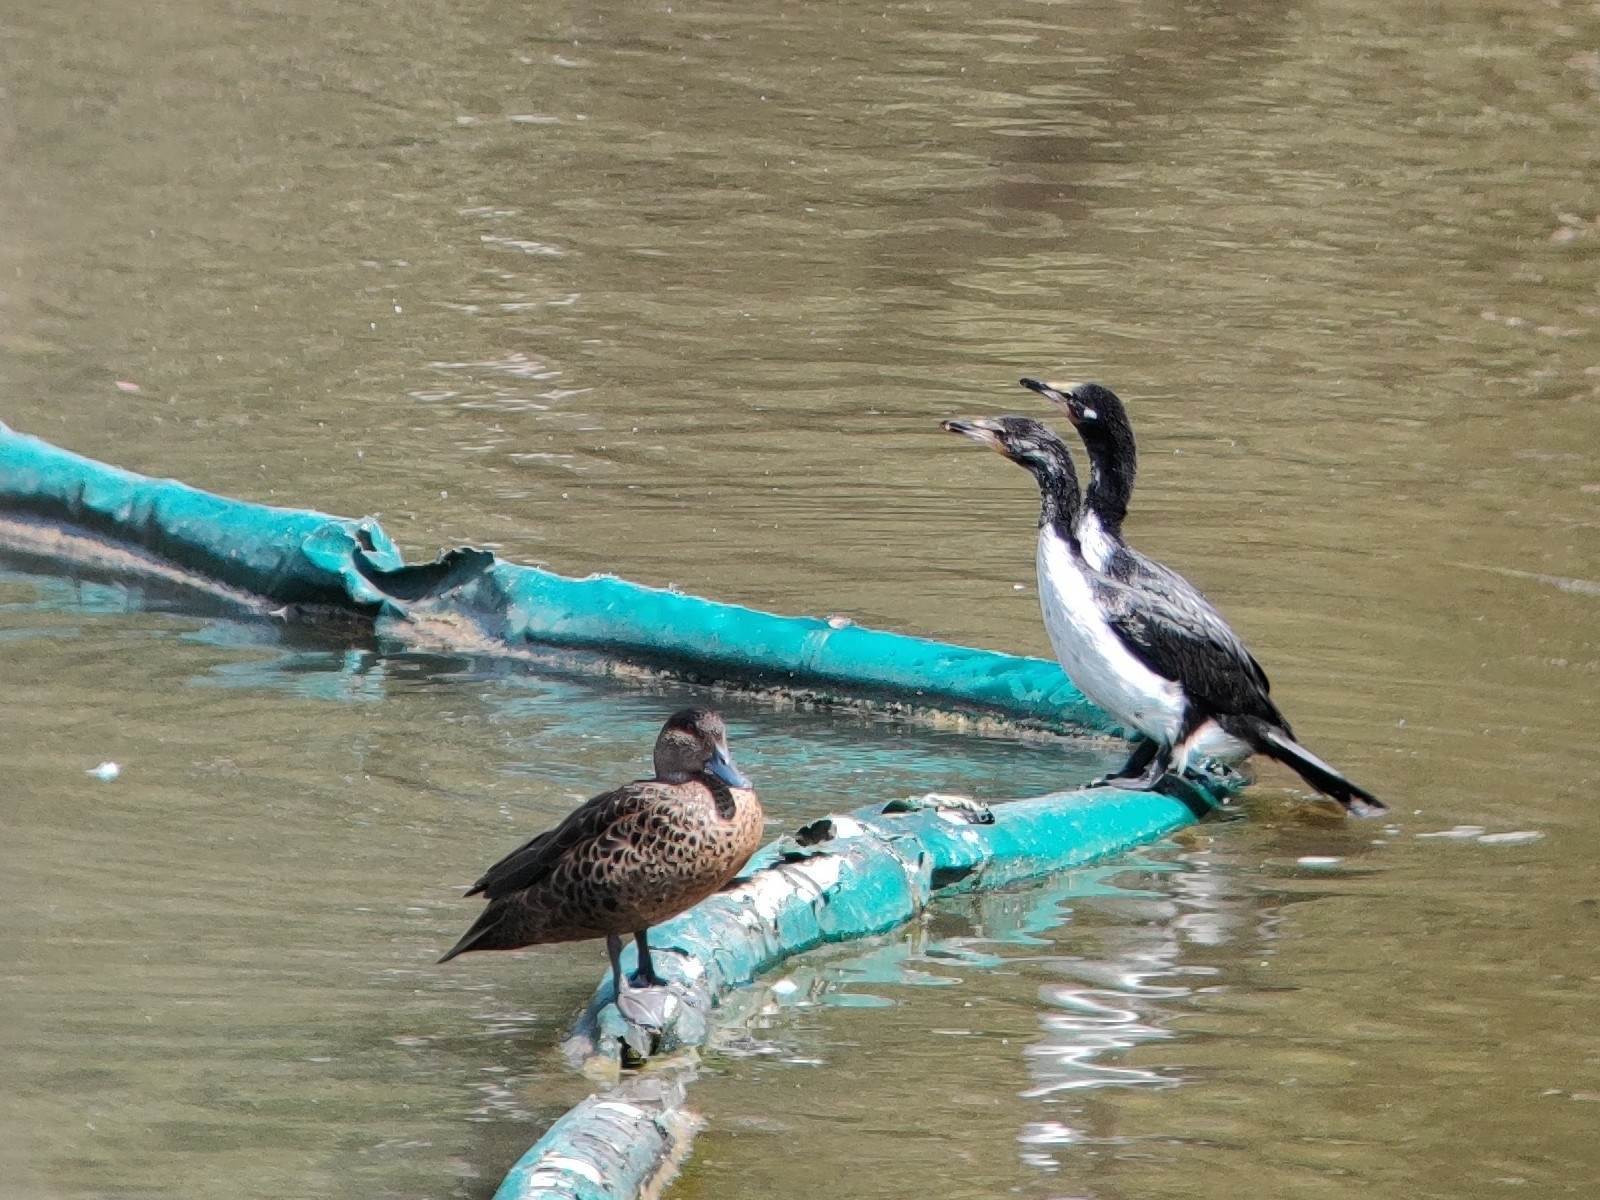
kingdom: Animalia
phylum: Chordata
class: Aves
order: Suliformes
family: Phalacrocoracidae
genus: Phalacrocorax
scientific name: Phalacrocorax varius
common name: Pied cormorant
